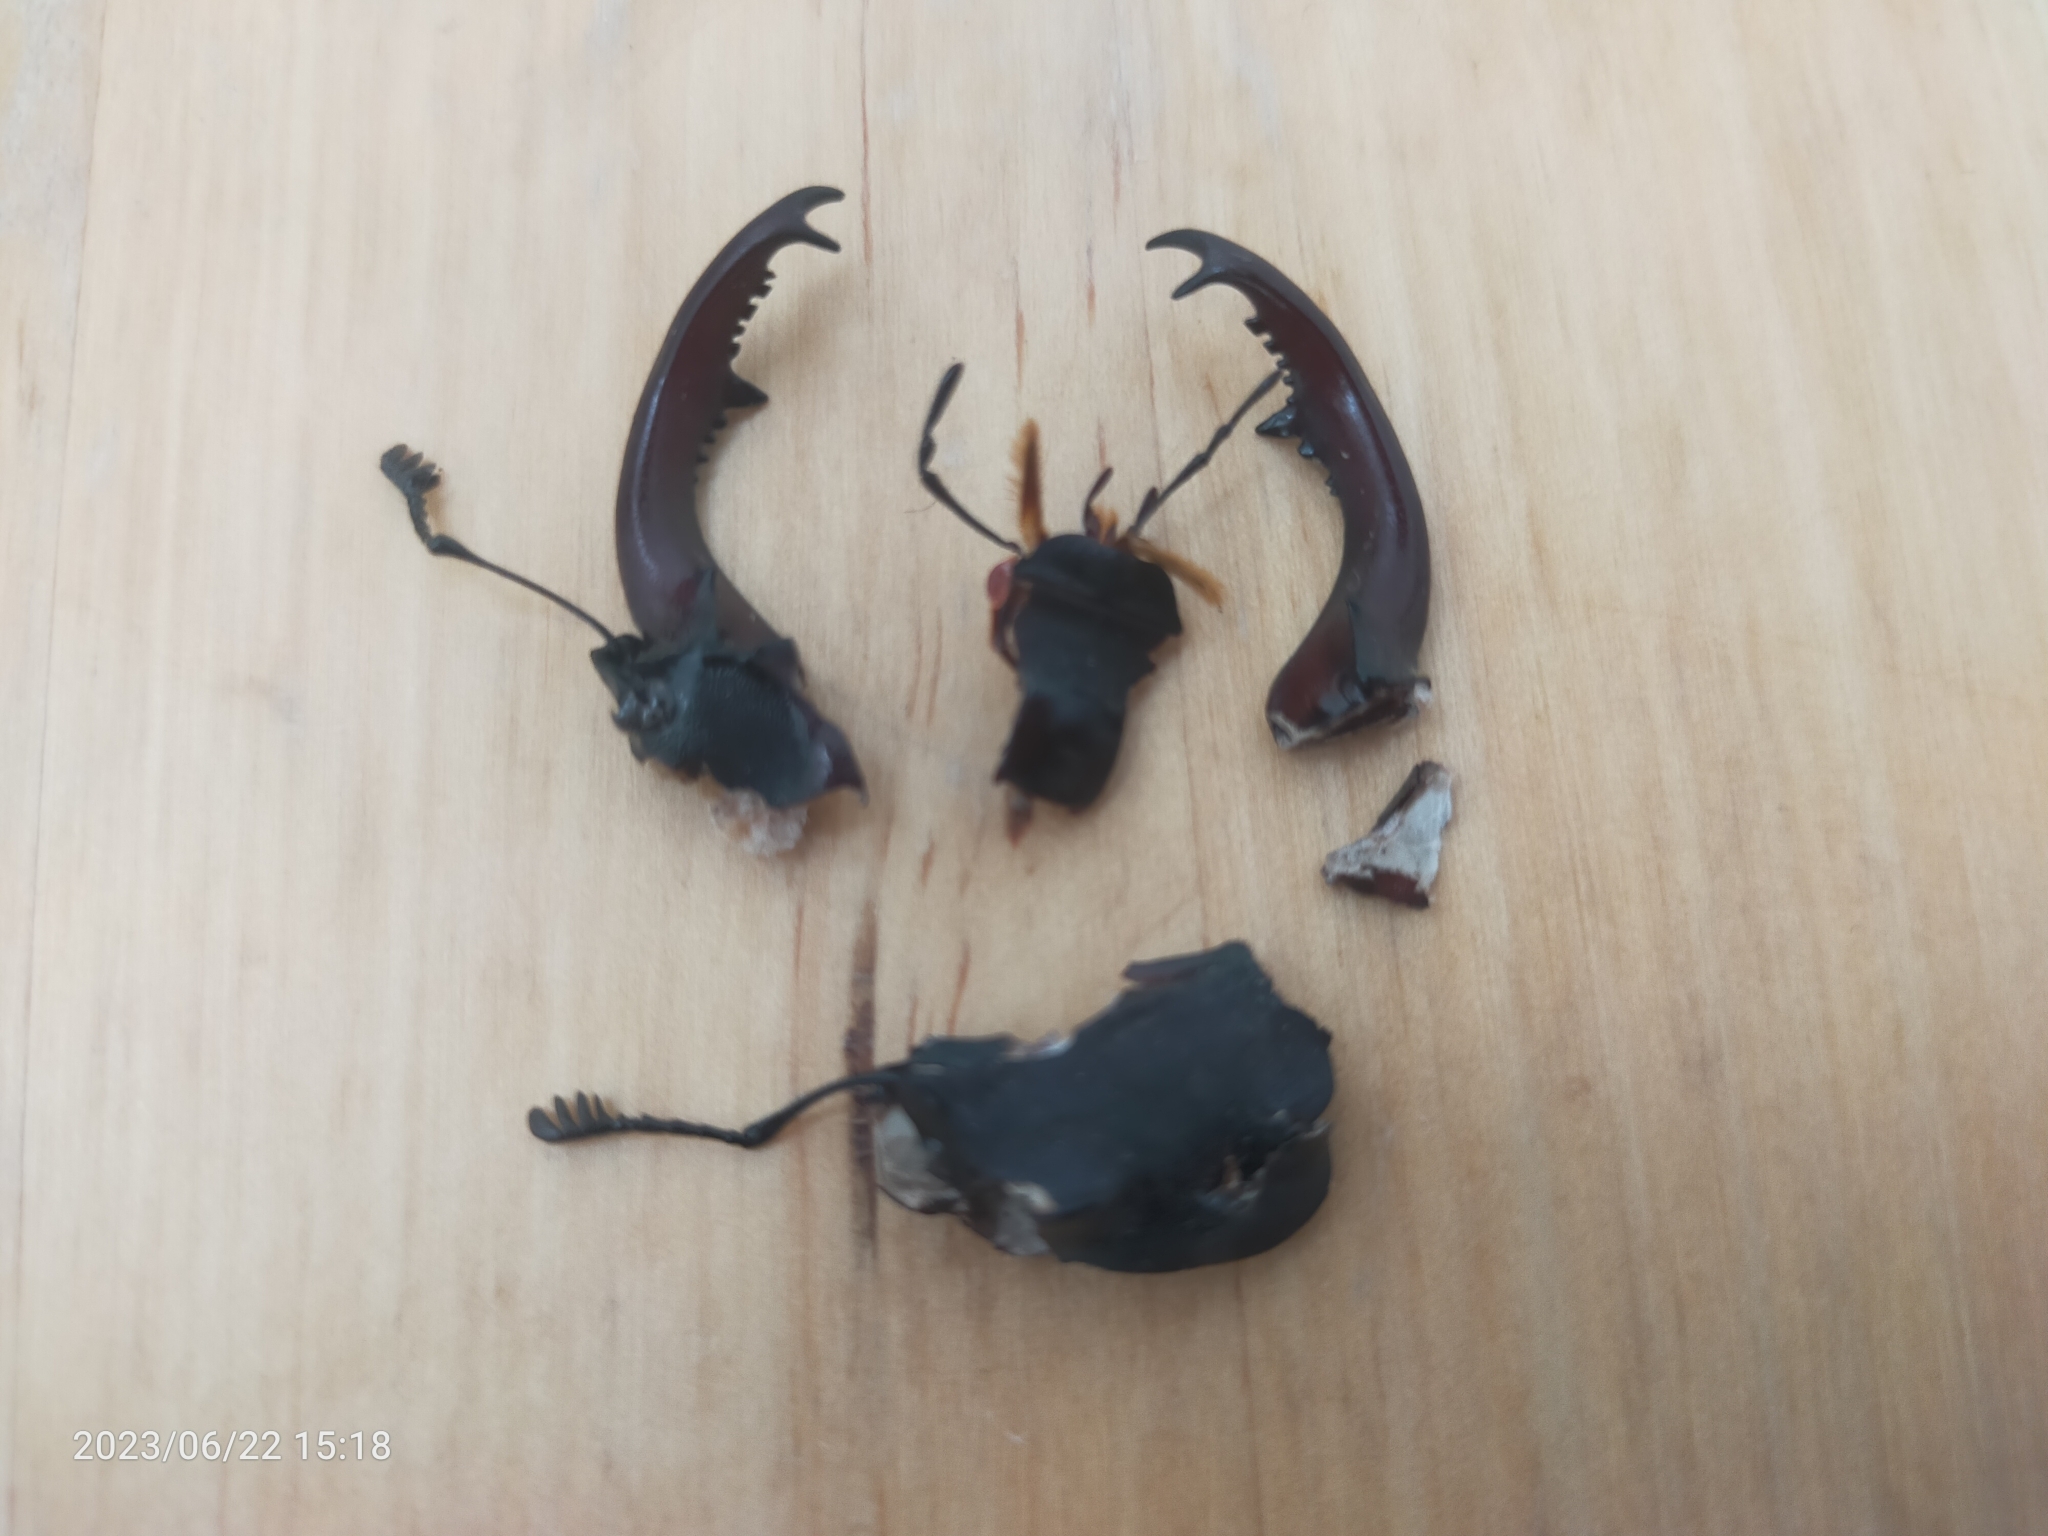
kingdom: Animalia
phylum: Arthropoda
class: Insecta
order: Coleoptera
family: Lucanidae
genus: Lucanus
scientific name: Lucanus cervus
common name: Stag beetle
